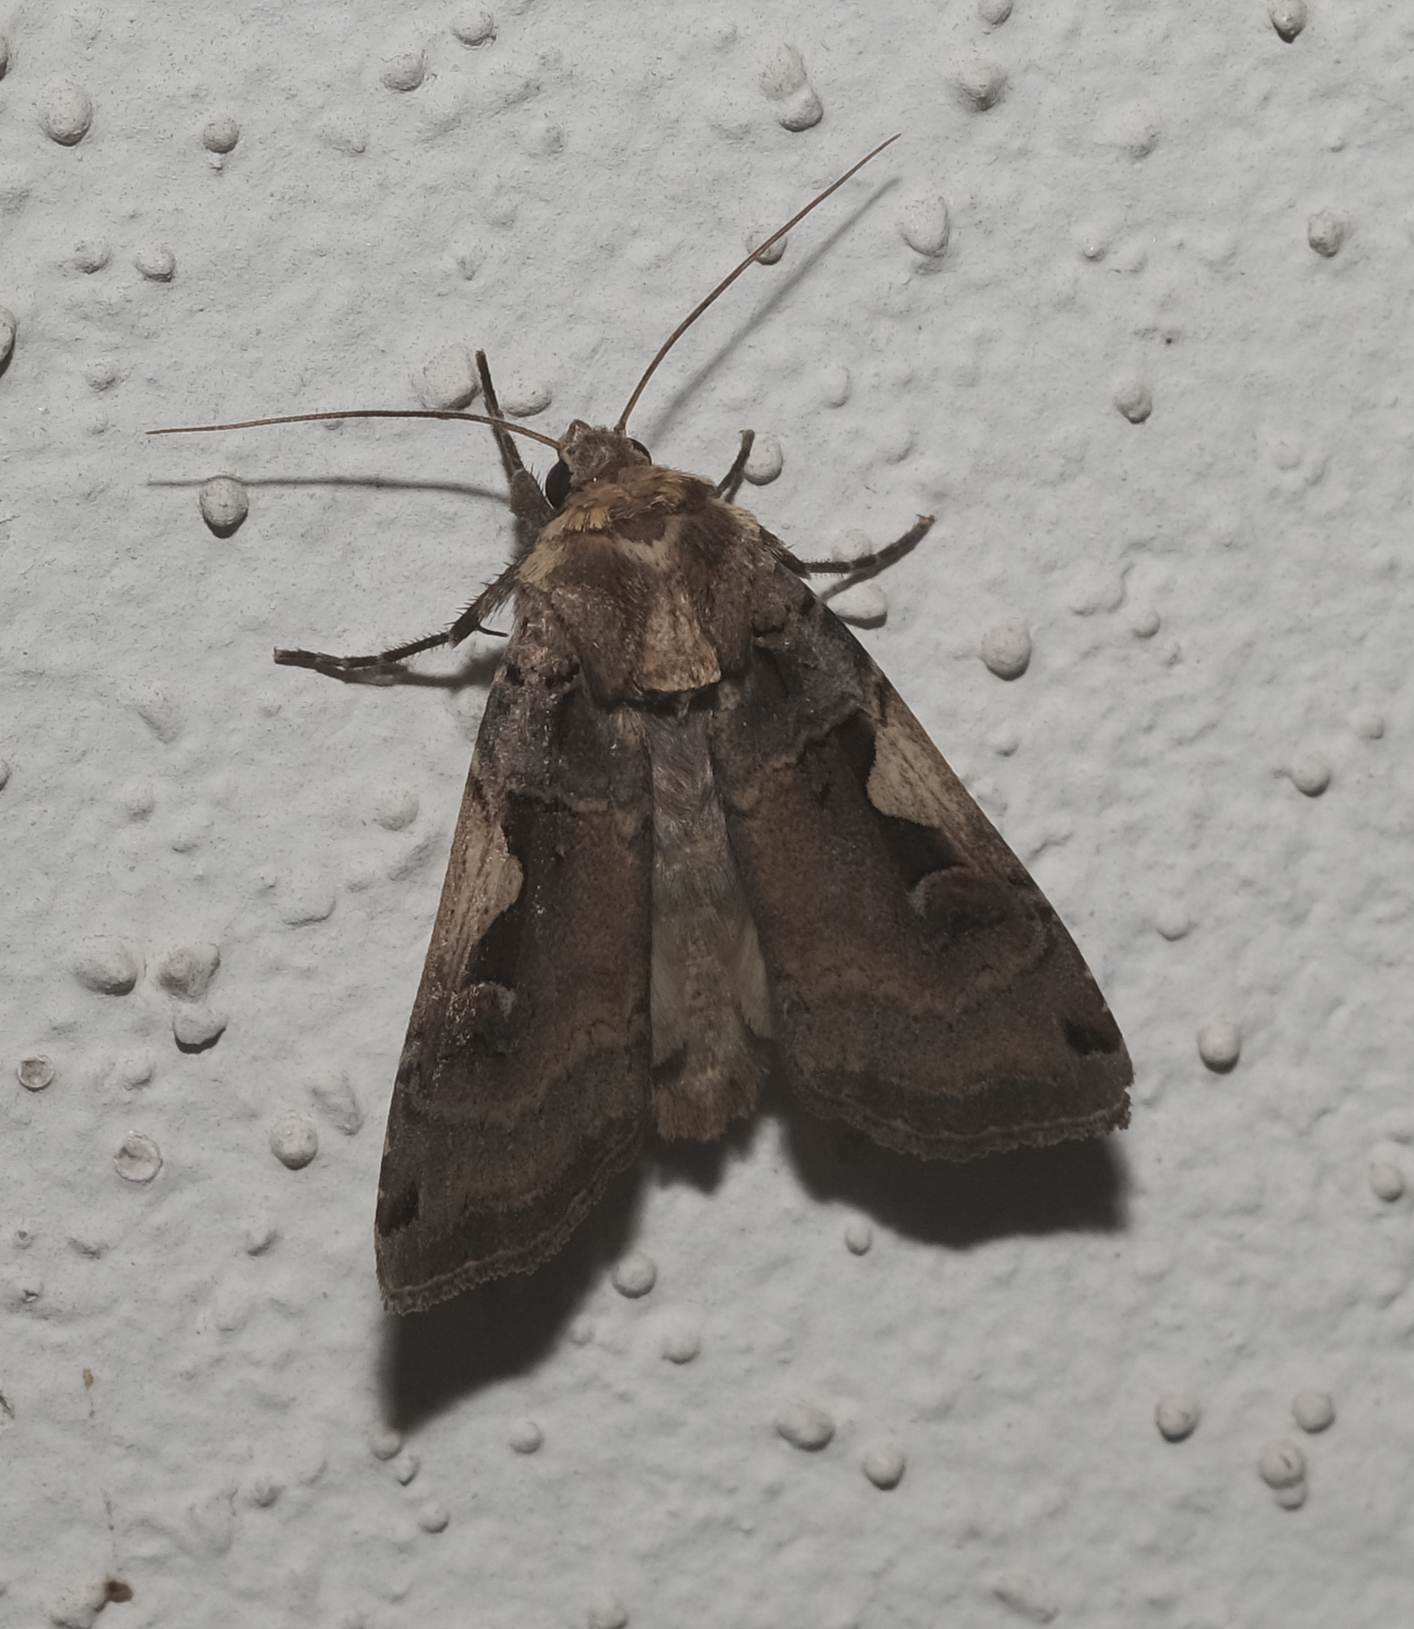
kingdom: Animalia
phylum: Arthropoda
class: Insecta
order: Lepidoptera
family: Noctuidae
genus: Xestia
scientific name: Xestia c-nigrum
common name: Setaceous hebrew character
